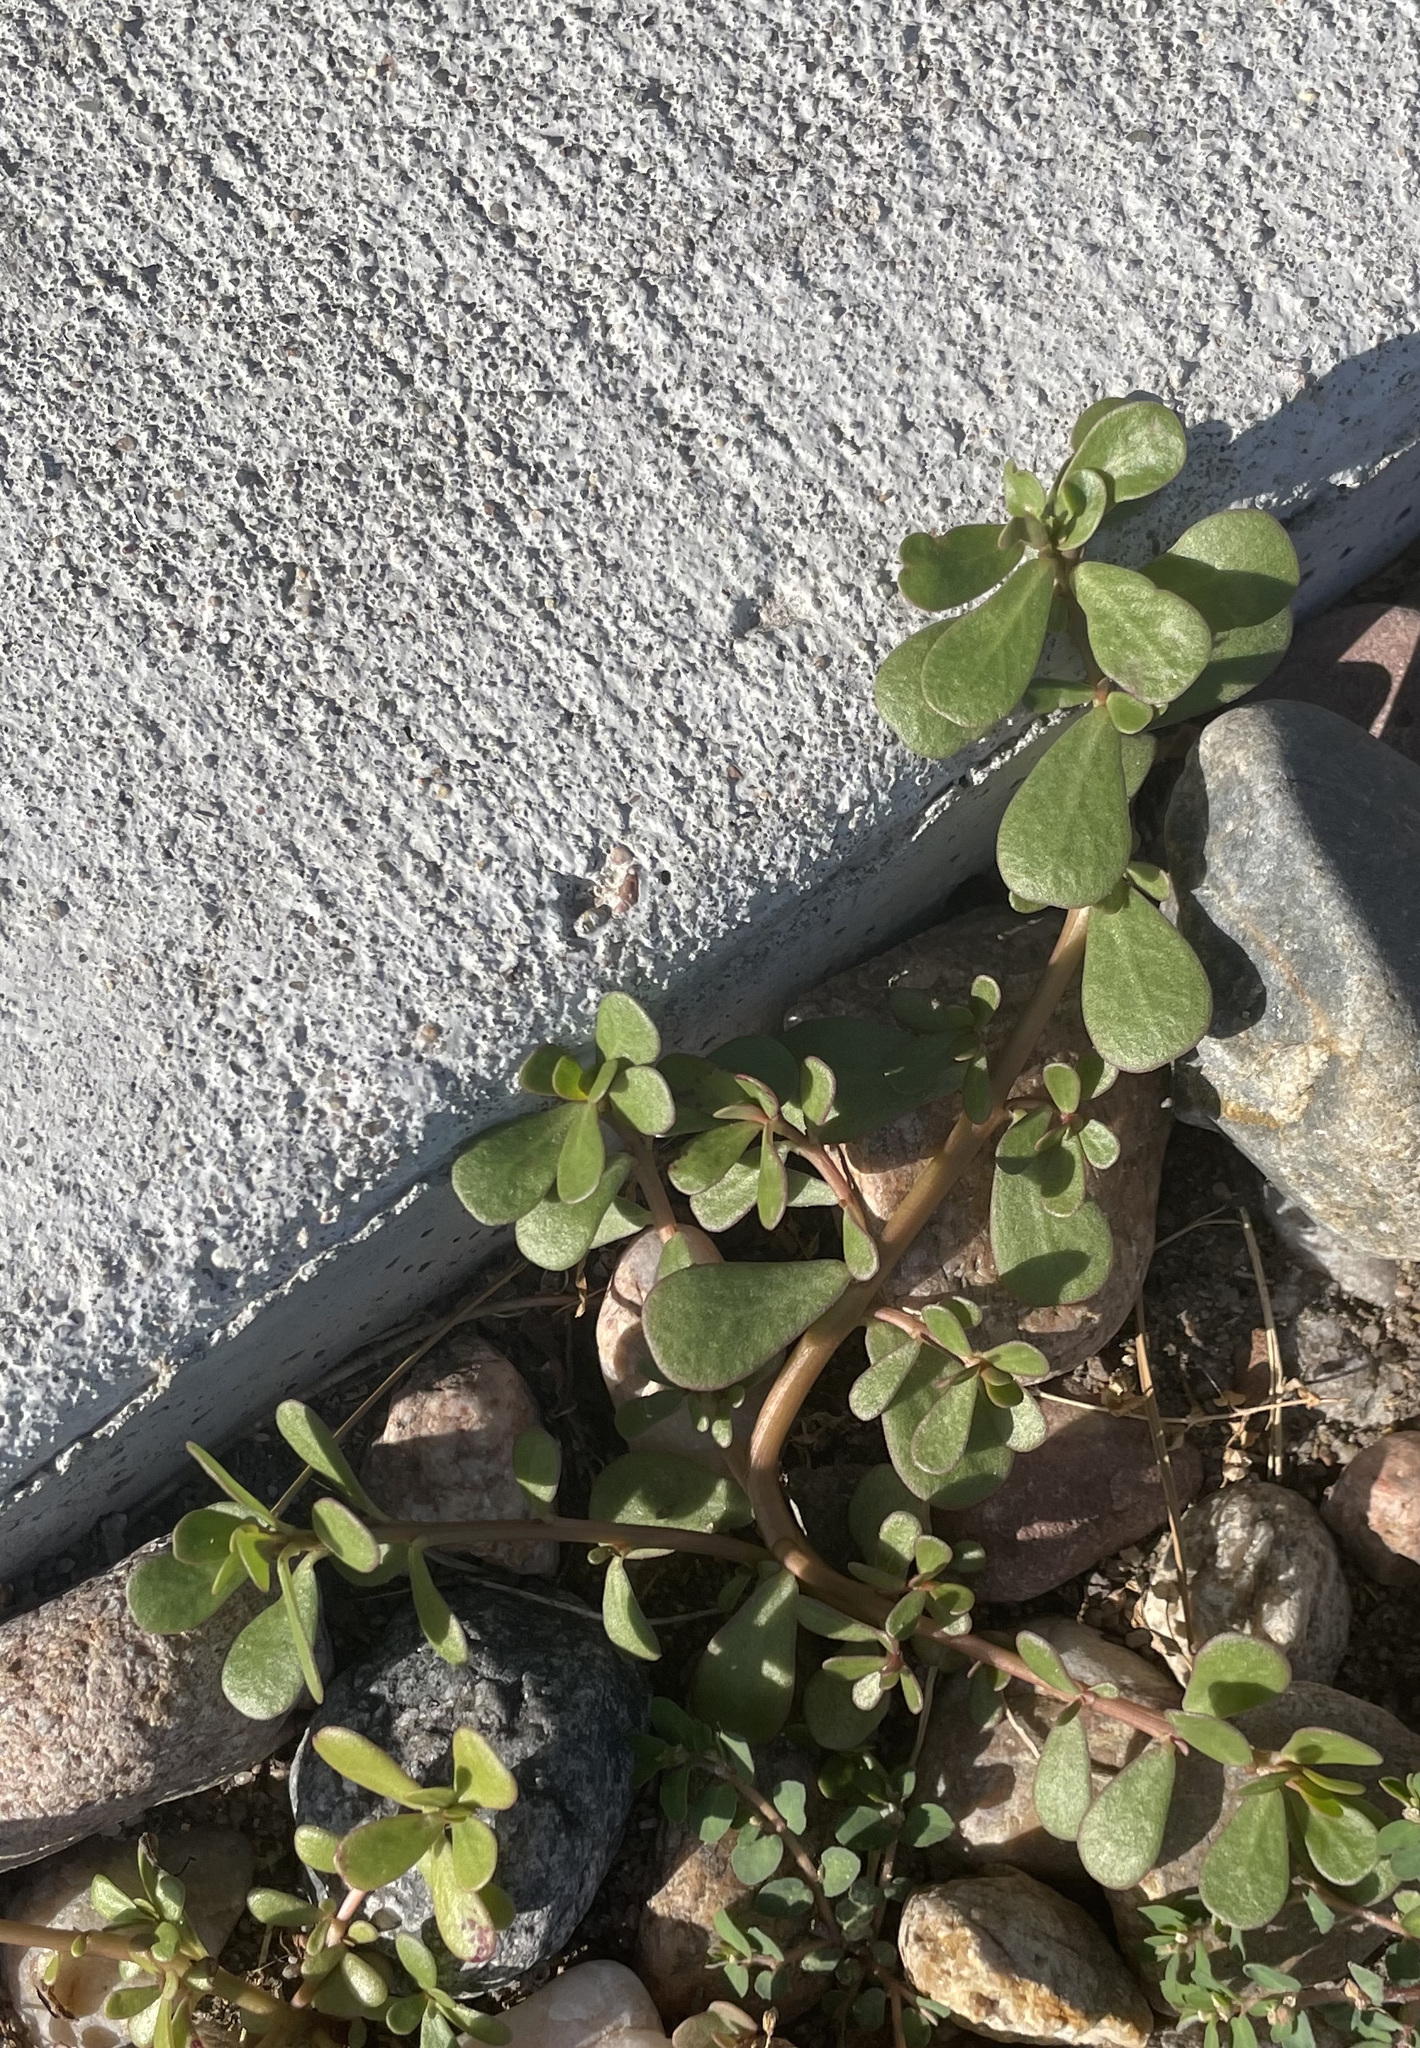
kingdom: Plantae
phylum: Tracheophyta
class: Magnoliopsida
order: Caryophyllales
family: Portulacaceae
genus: Portulaca
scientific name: Portulaca oleracea
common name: Common purslane
